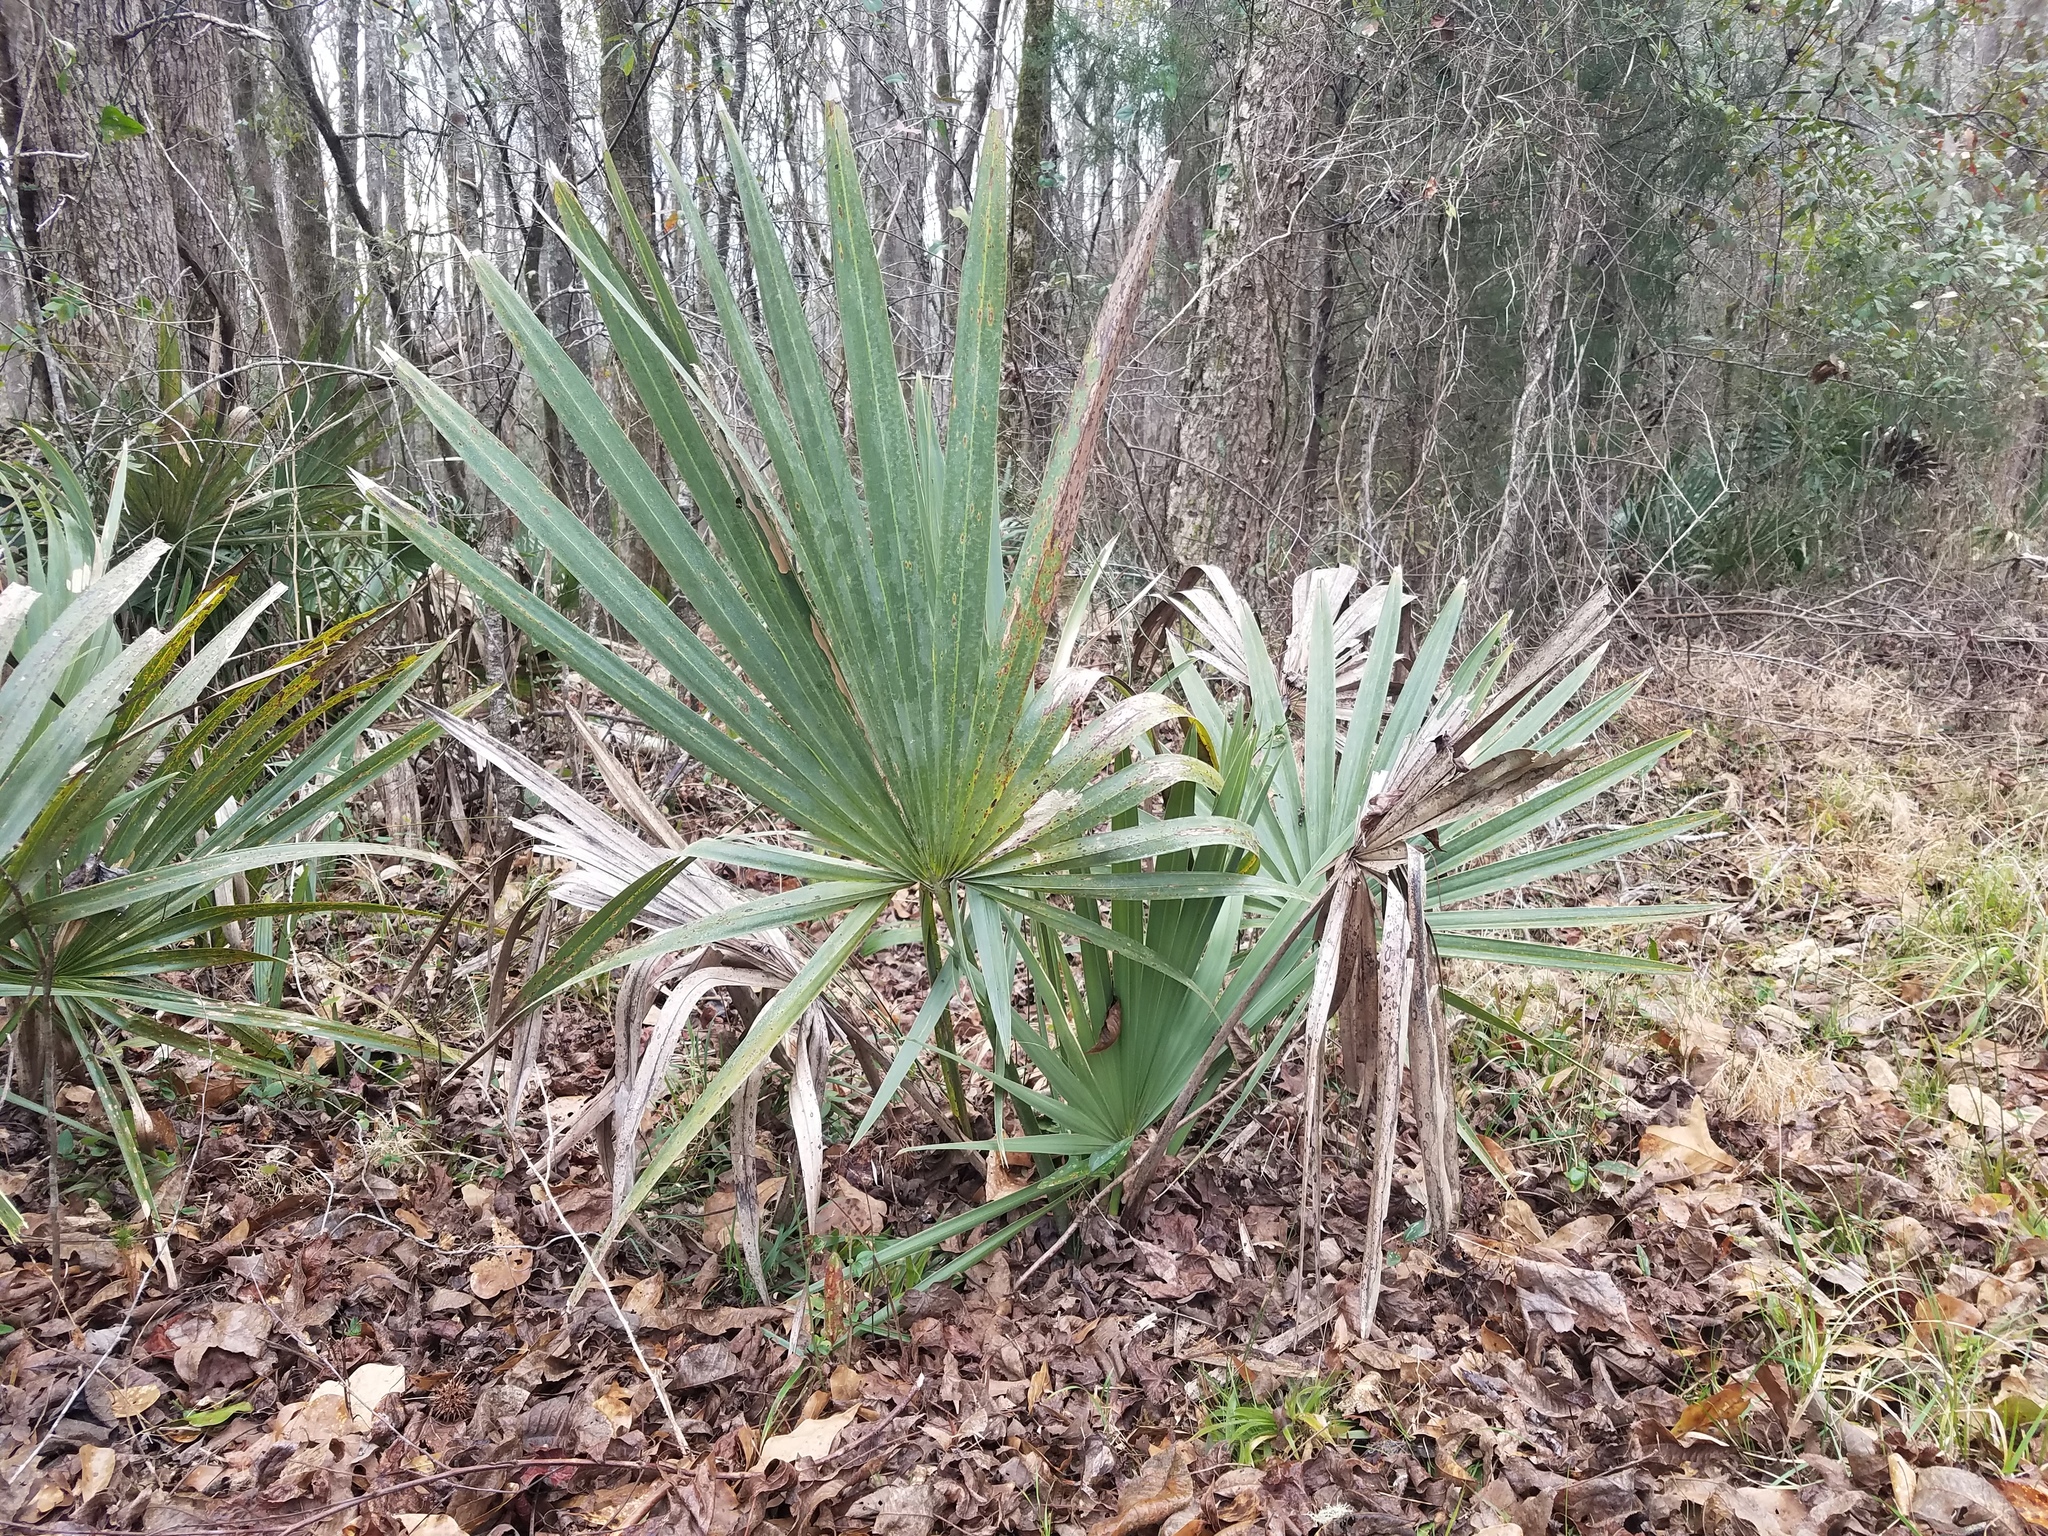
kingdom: Plantae
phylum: Tracheophyta
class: Liliopsida
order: Arecales
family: Arecaceae
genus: Sabal
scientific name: Sabal minor
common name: Dwarf palmetto
